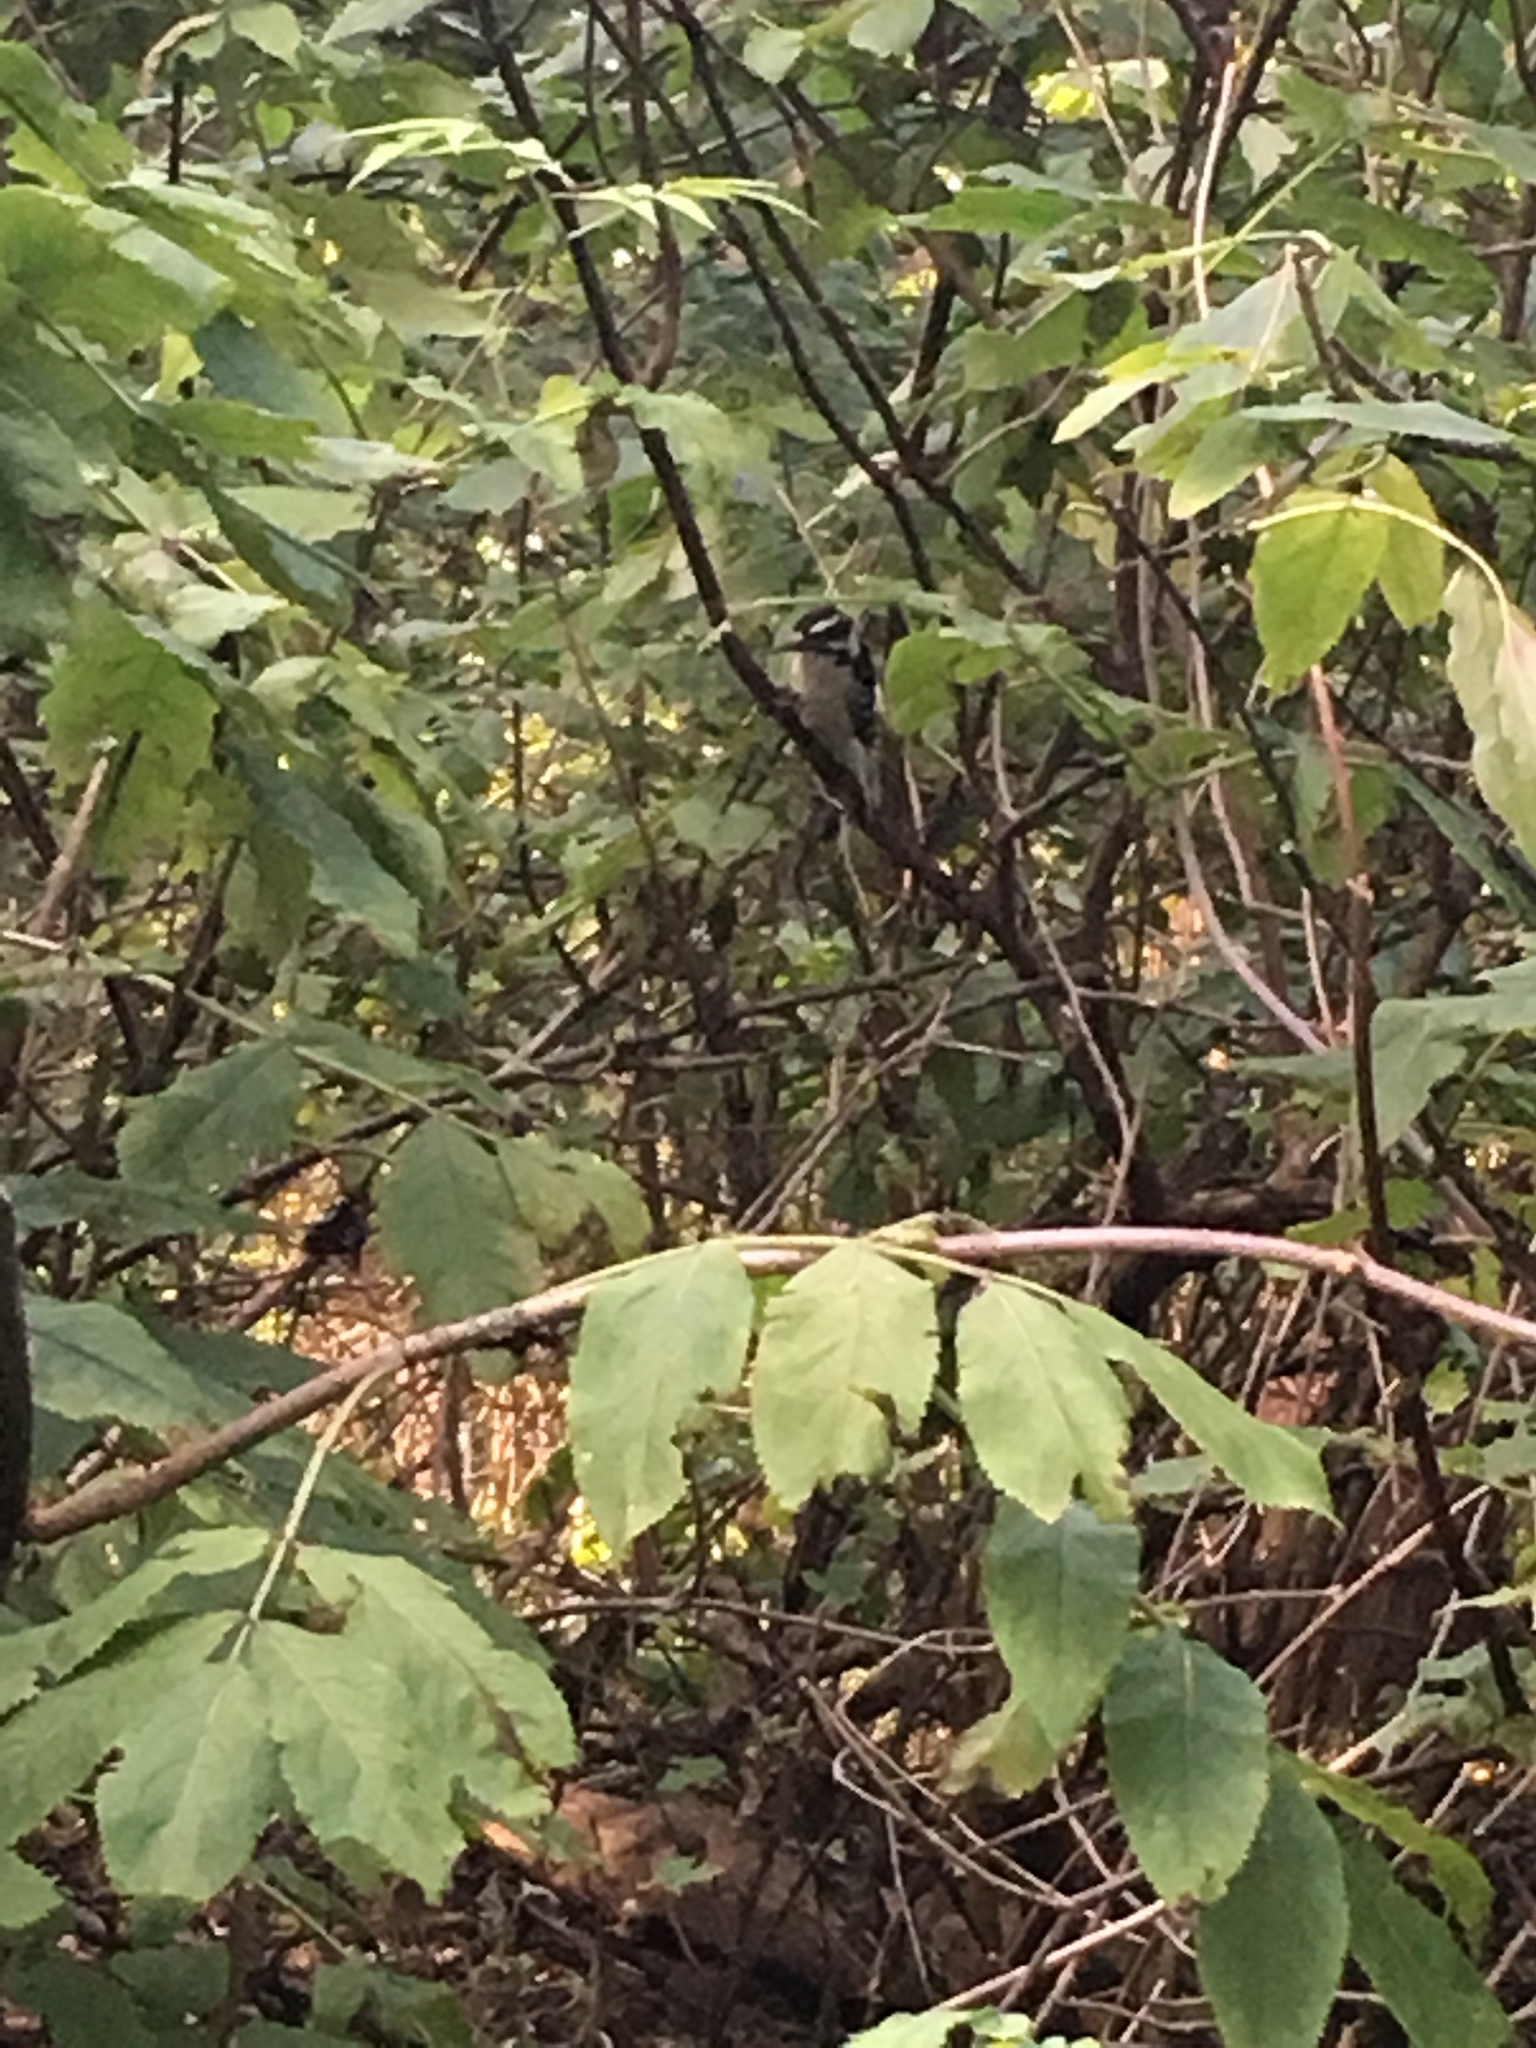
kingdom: Animalia
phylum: Chordata
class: Aves
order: Piciformes
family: Picidae
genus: Dryobates
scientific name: Dryobates pubescens
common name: Downy woodpecker
